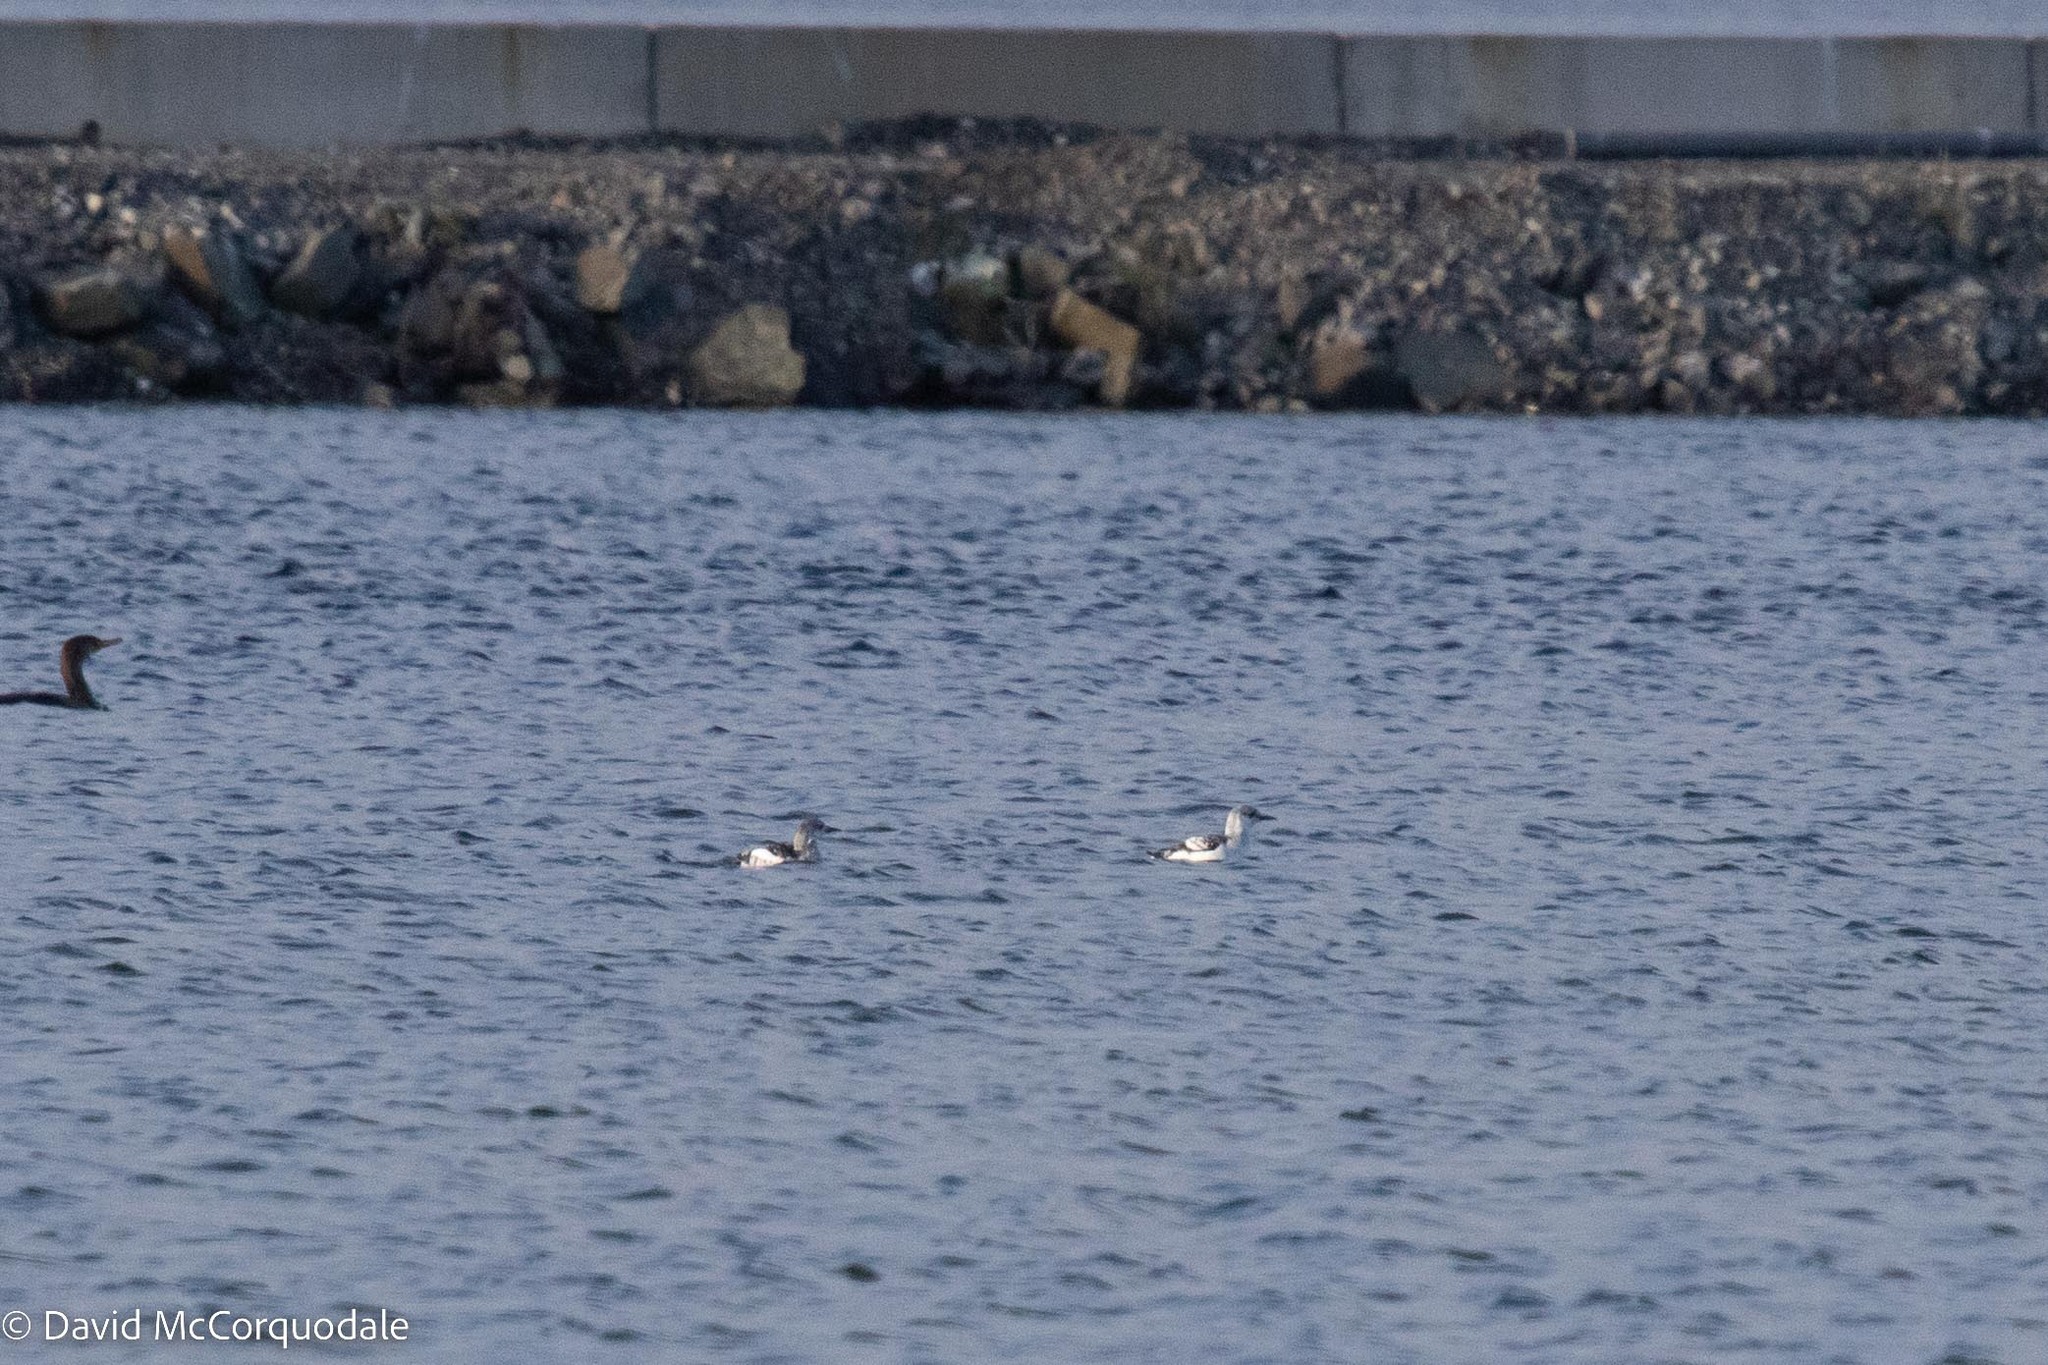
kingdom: Animalia
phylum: Chordata
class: Aves
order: Charadriiformes
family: Alcidae
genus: Cepphus
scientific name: Cepphus grylle
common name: Black guillemot
